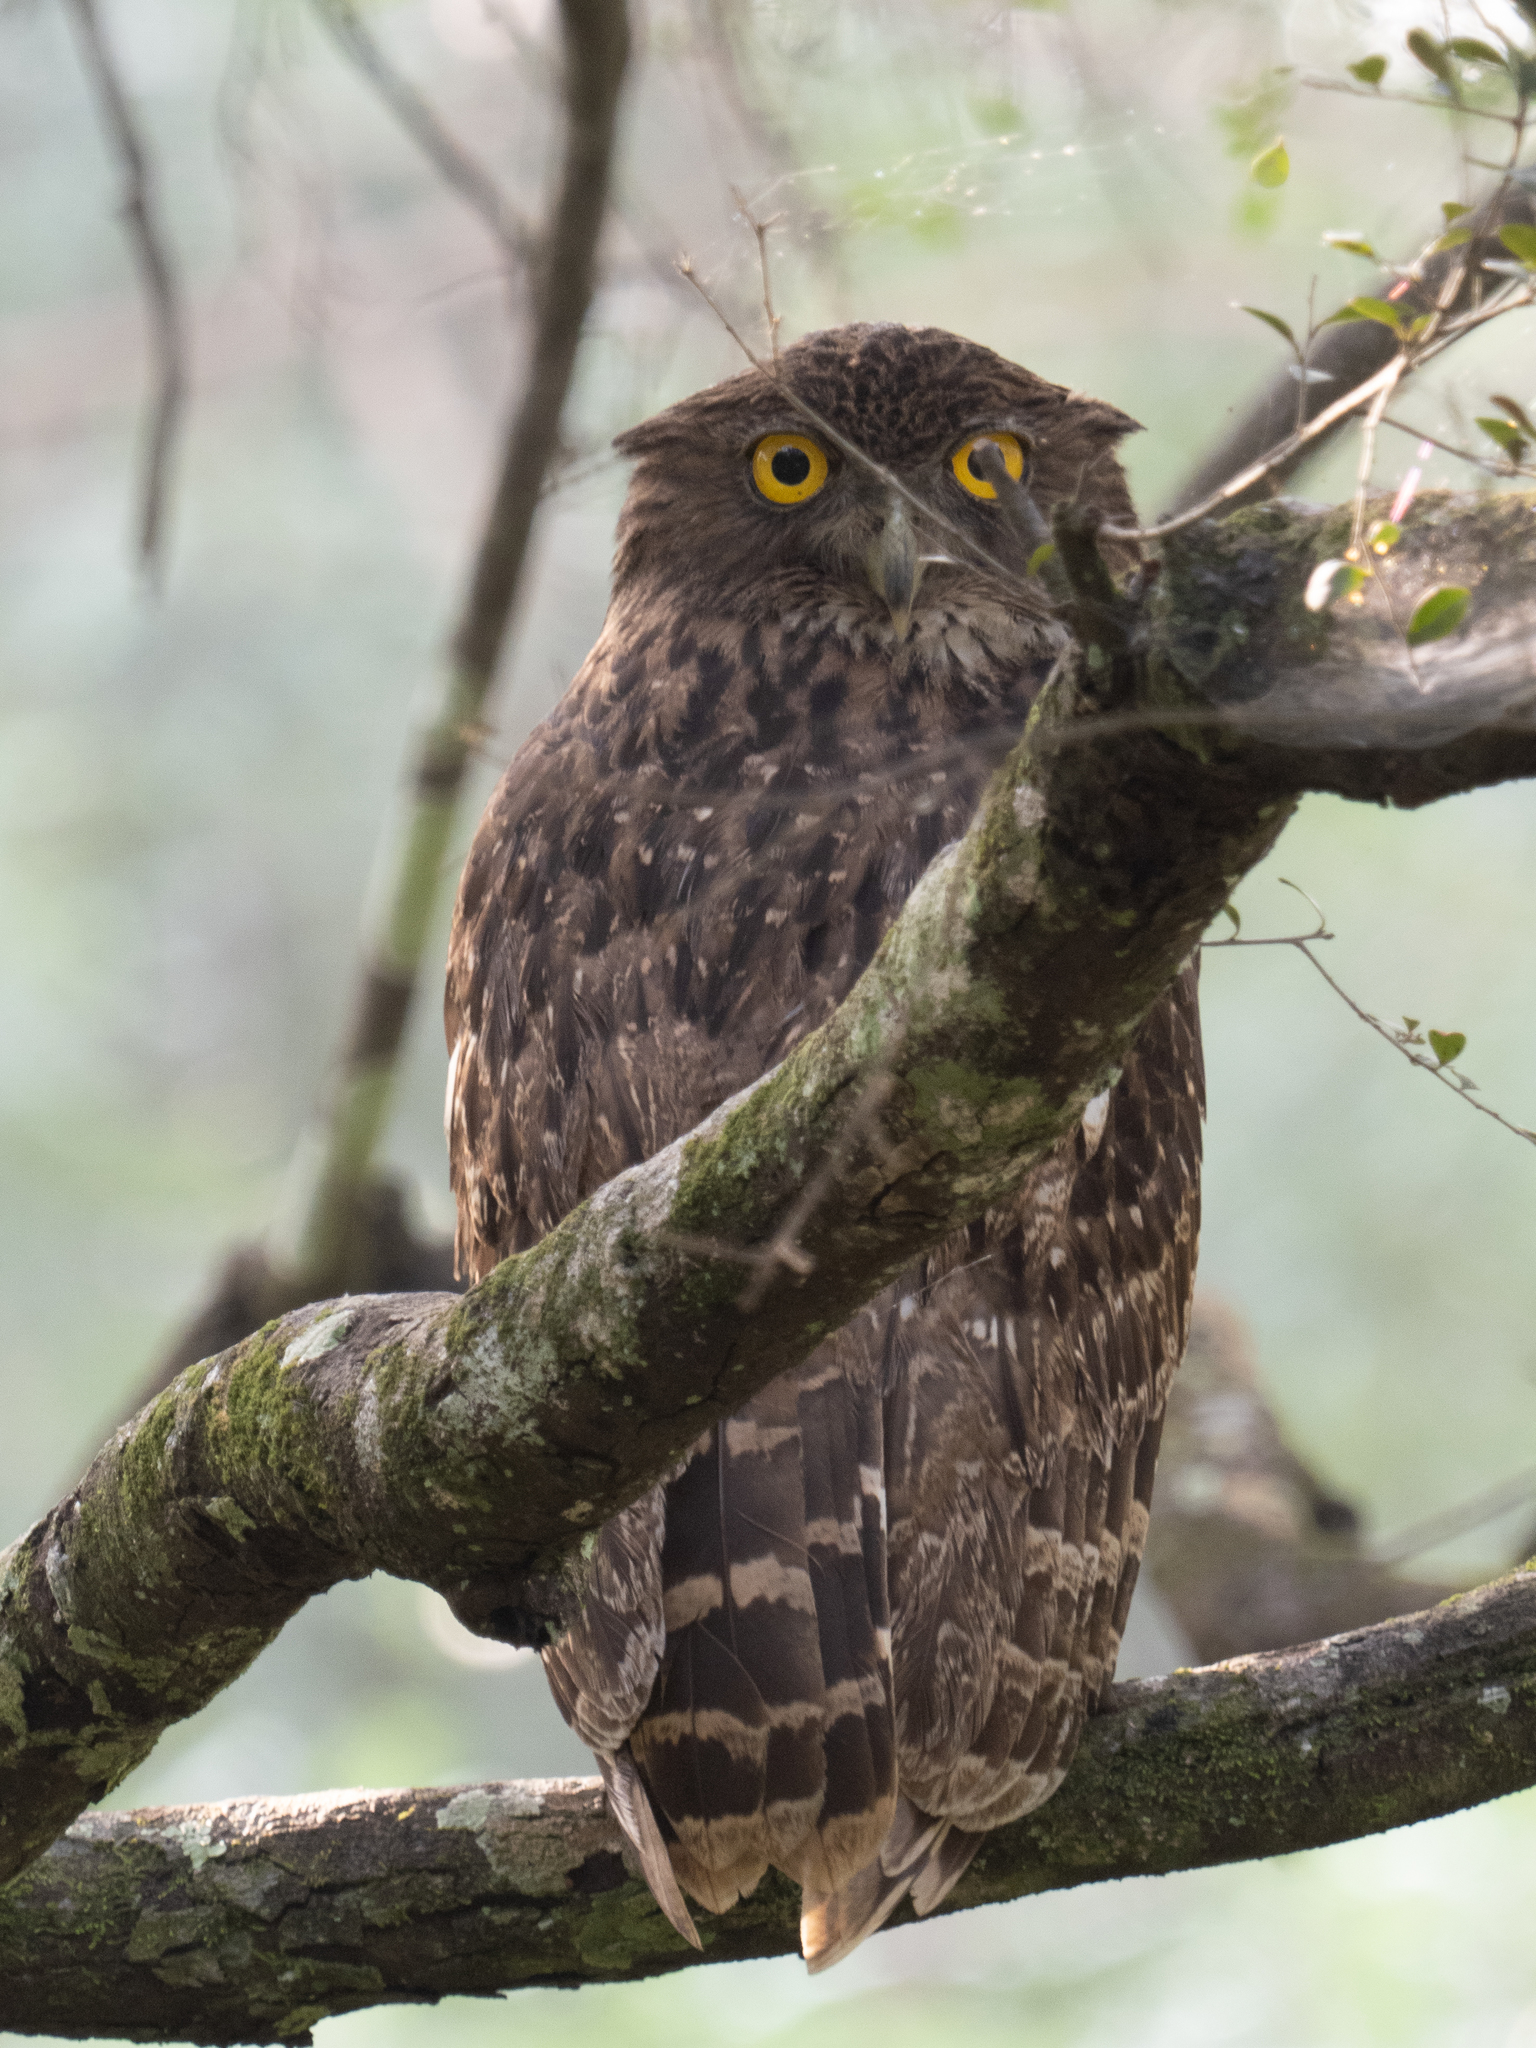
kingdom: Animalia
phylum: Chordata
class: Aves
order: Strigiformes
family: Strigidae
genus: Ketupa
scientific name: Ketupa zeylonensis
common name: Brown fish owl
